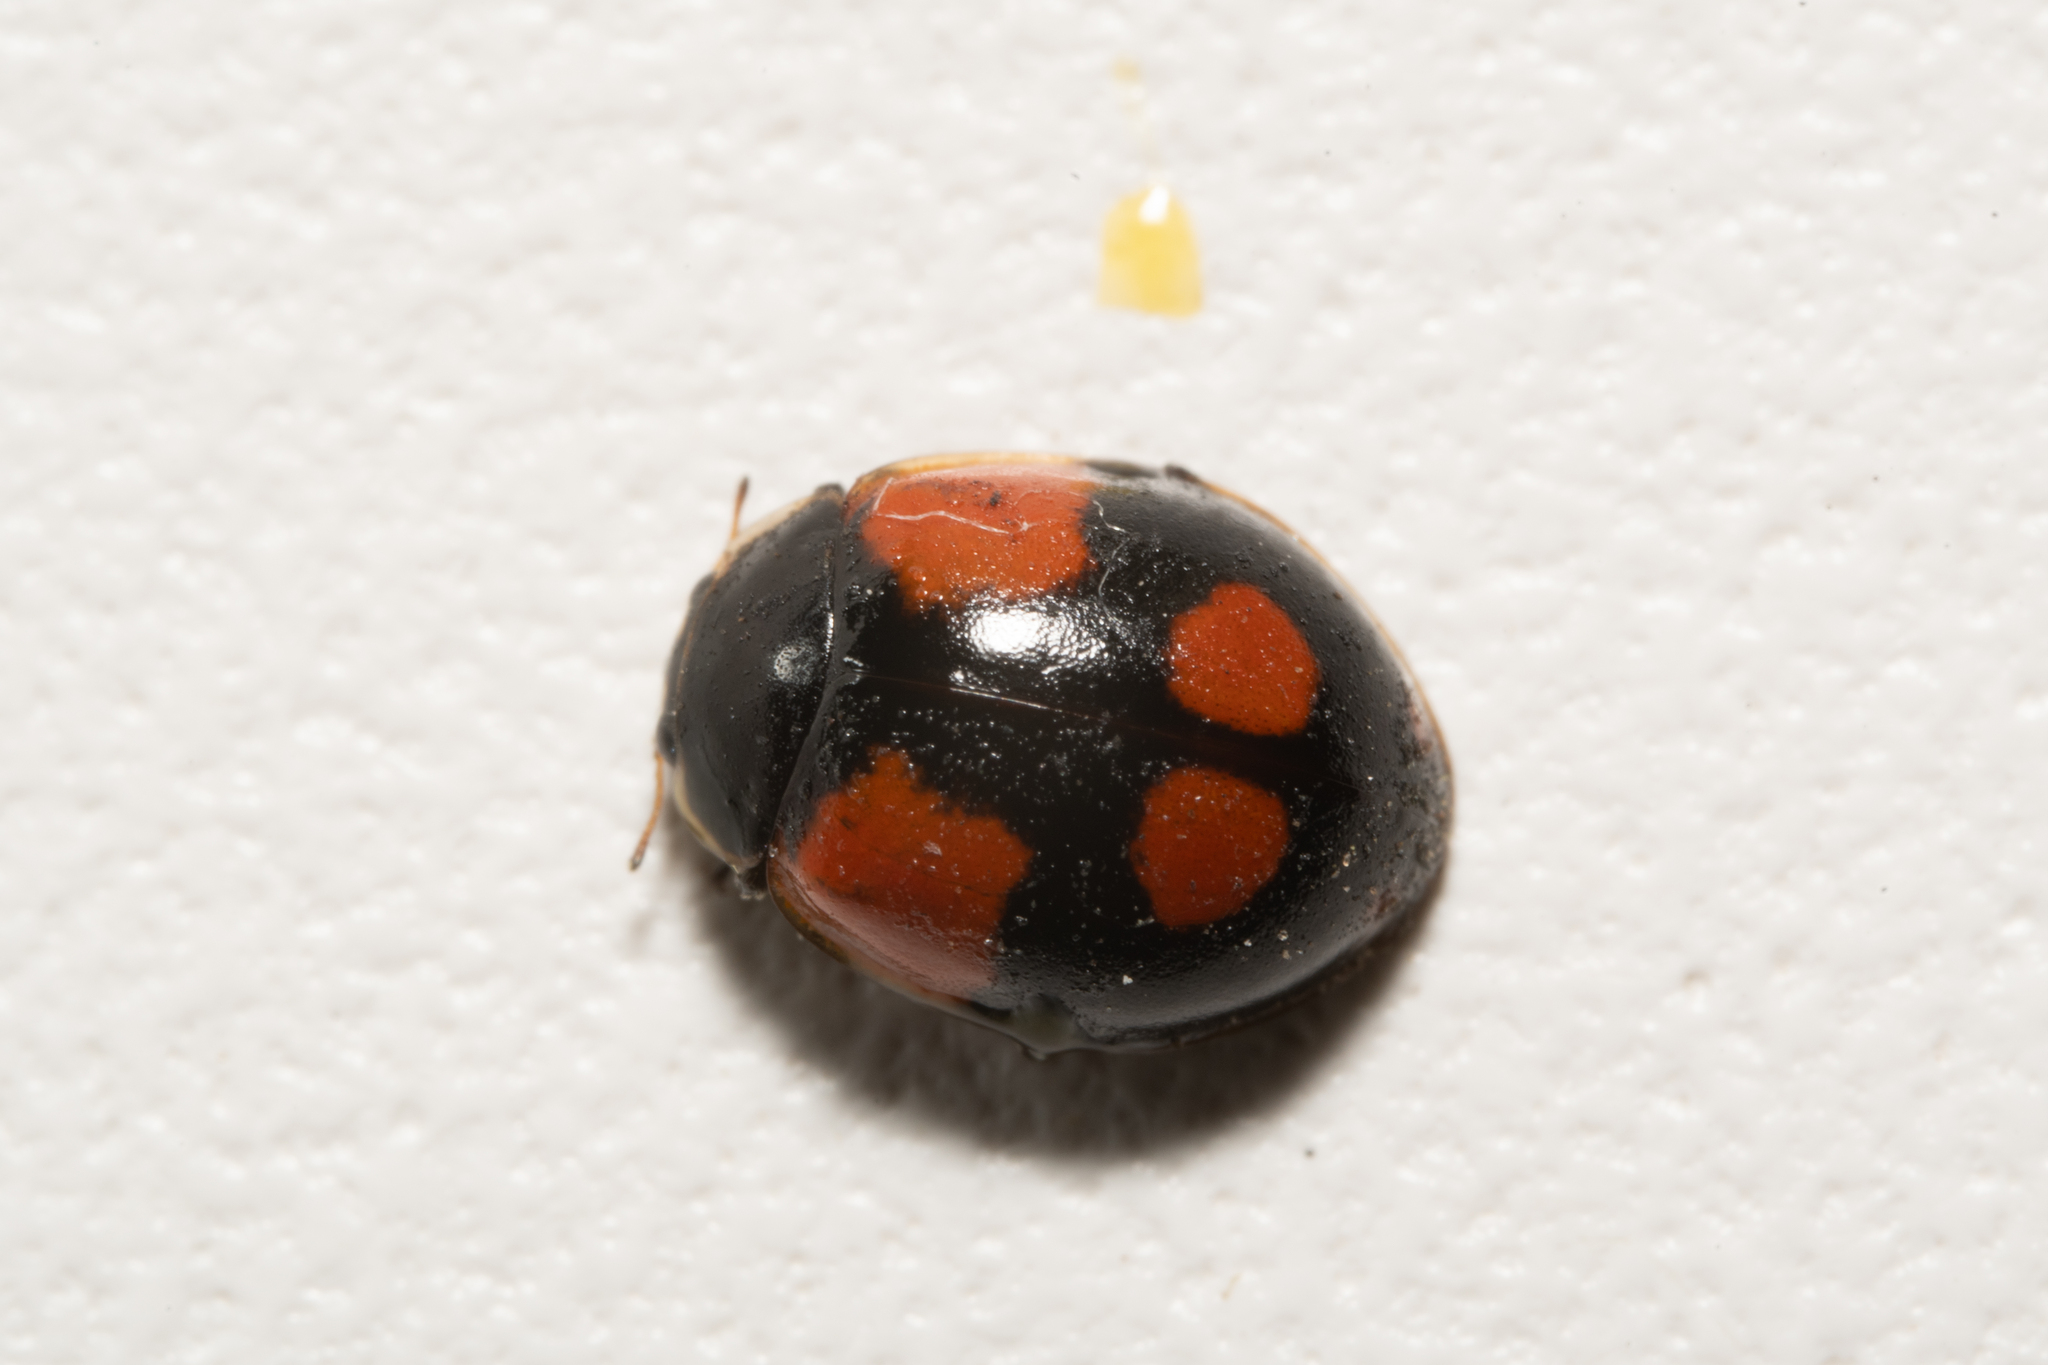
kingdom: Animalia
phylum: Arthropoda
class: Insecta
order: Coleoptera
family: Coccinellidae
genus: Adalia
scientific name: Adalia bipunctata
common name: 2-spot ladybird
